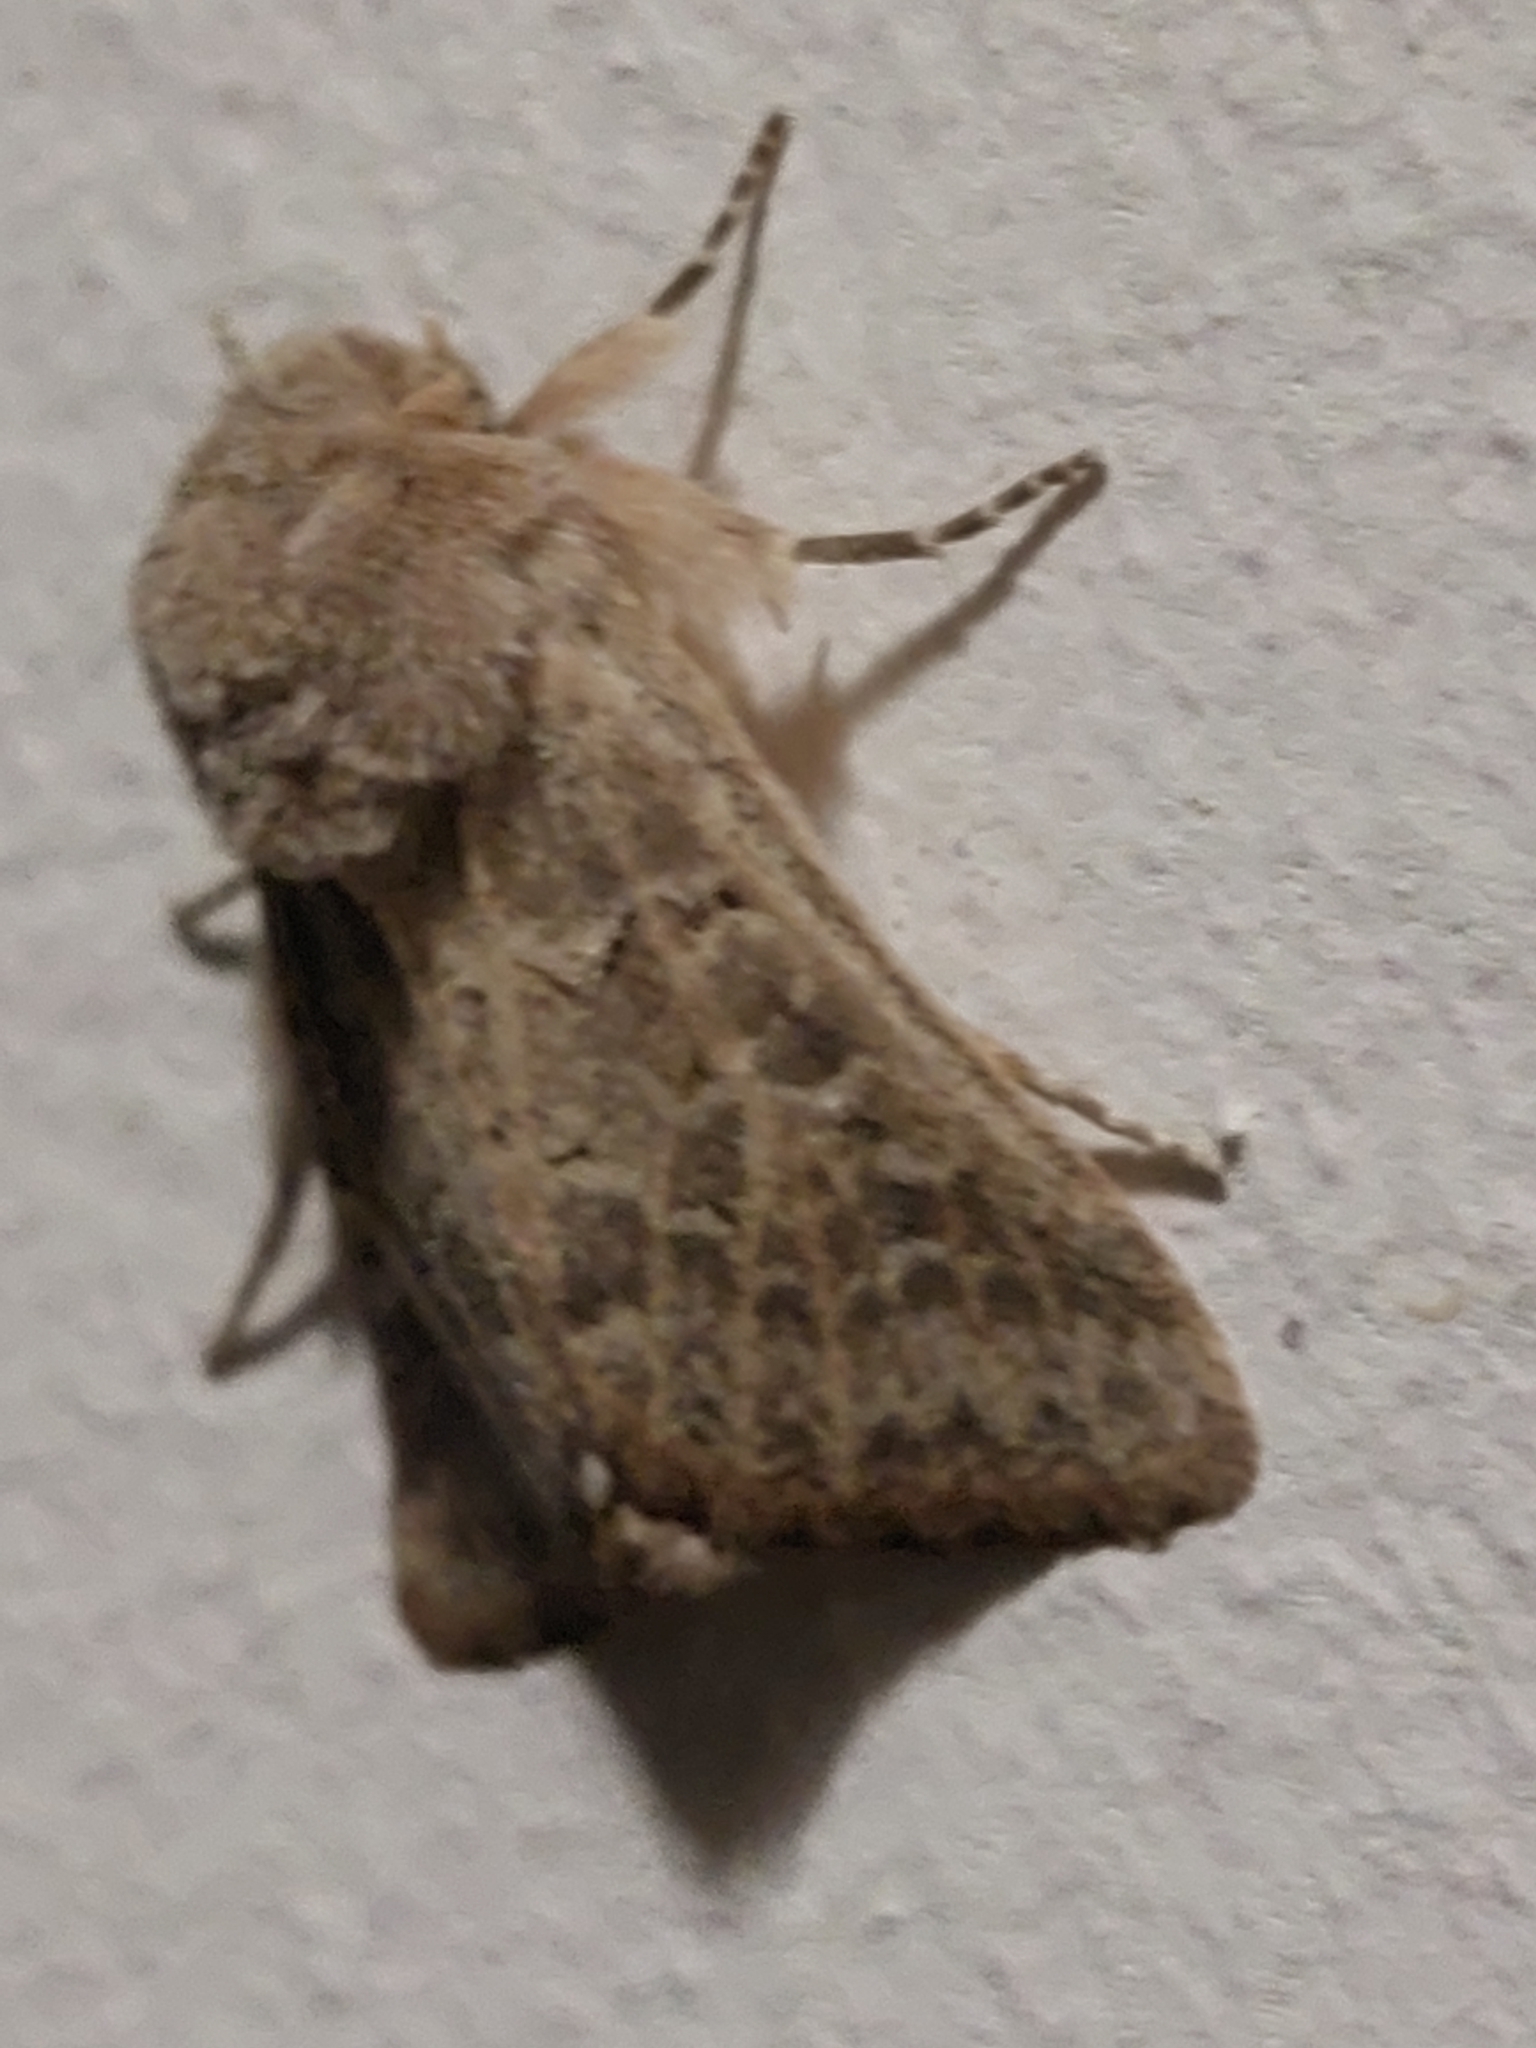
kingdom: Animalia
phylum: Arthropoda
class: Insecta
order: Lepidoptera
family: Noctuidae
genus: Episema
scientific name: Episema lederi
